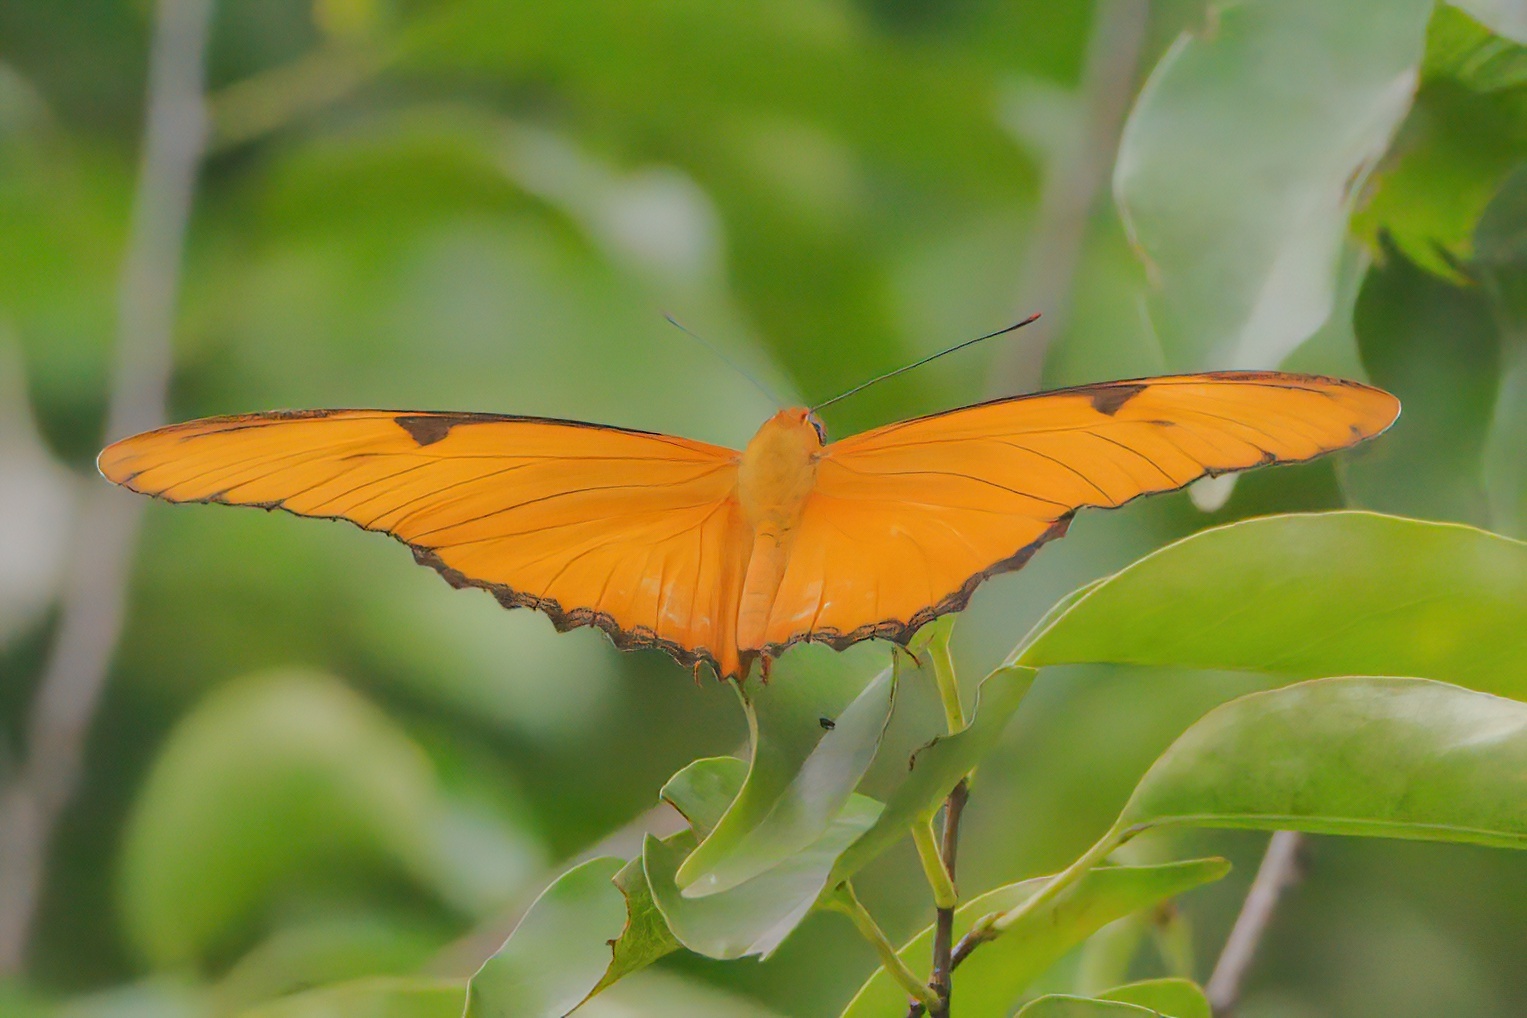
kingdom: Animalia
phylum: Arthropoda
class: Insecta
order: Lepidoptera
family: Nymphalidae
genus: Dryas
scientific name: Dryas iulia
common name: Flambeau
